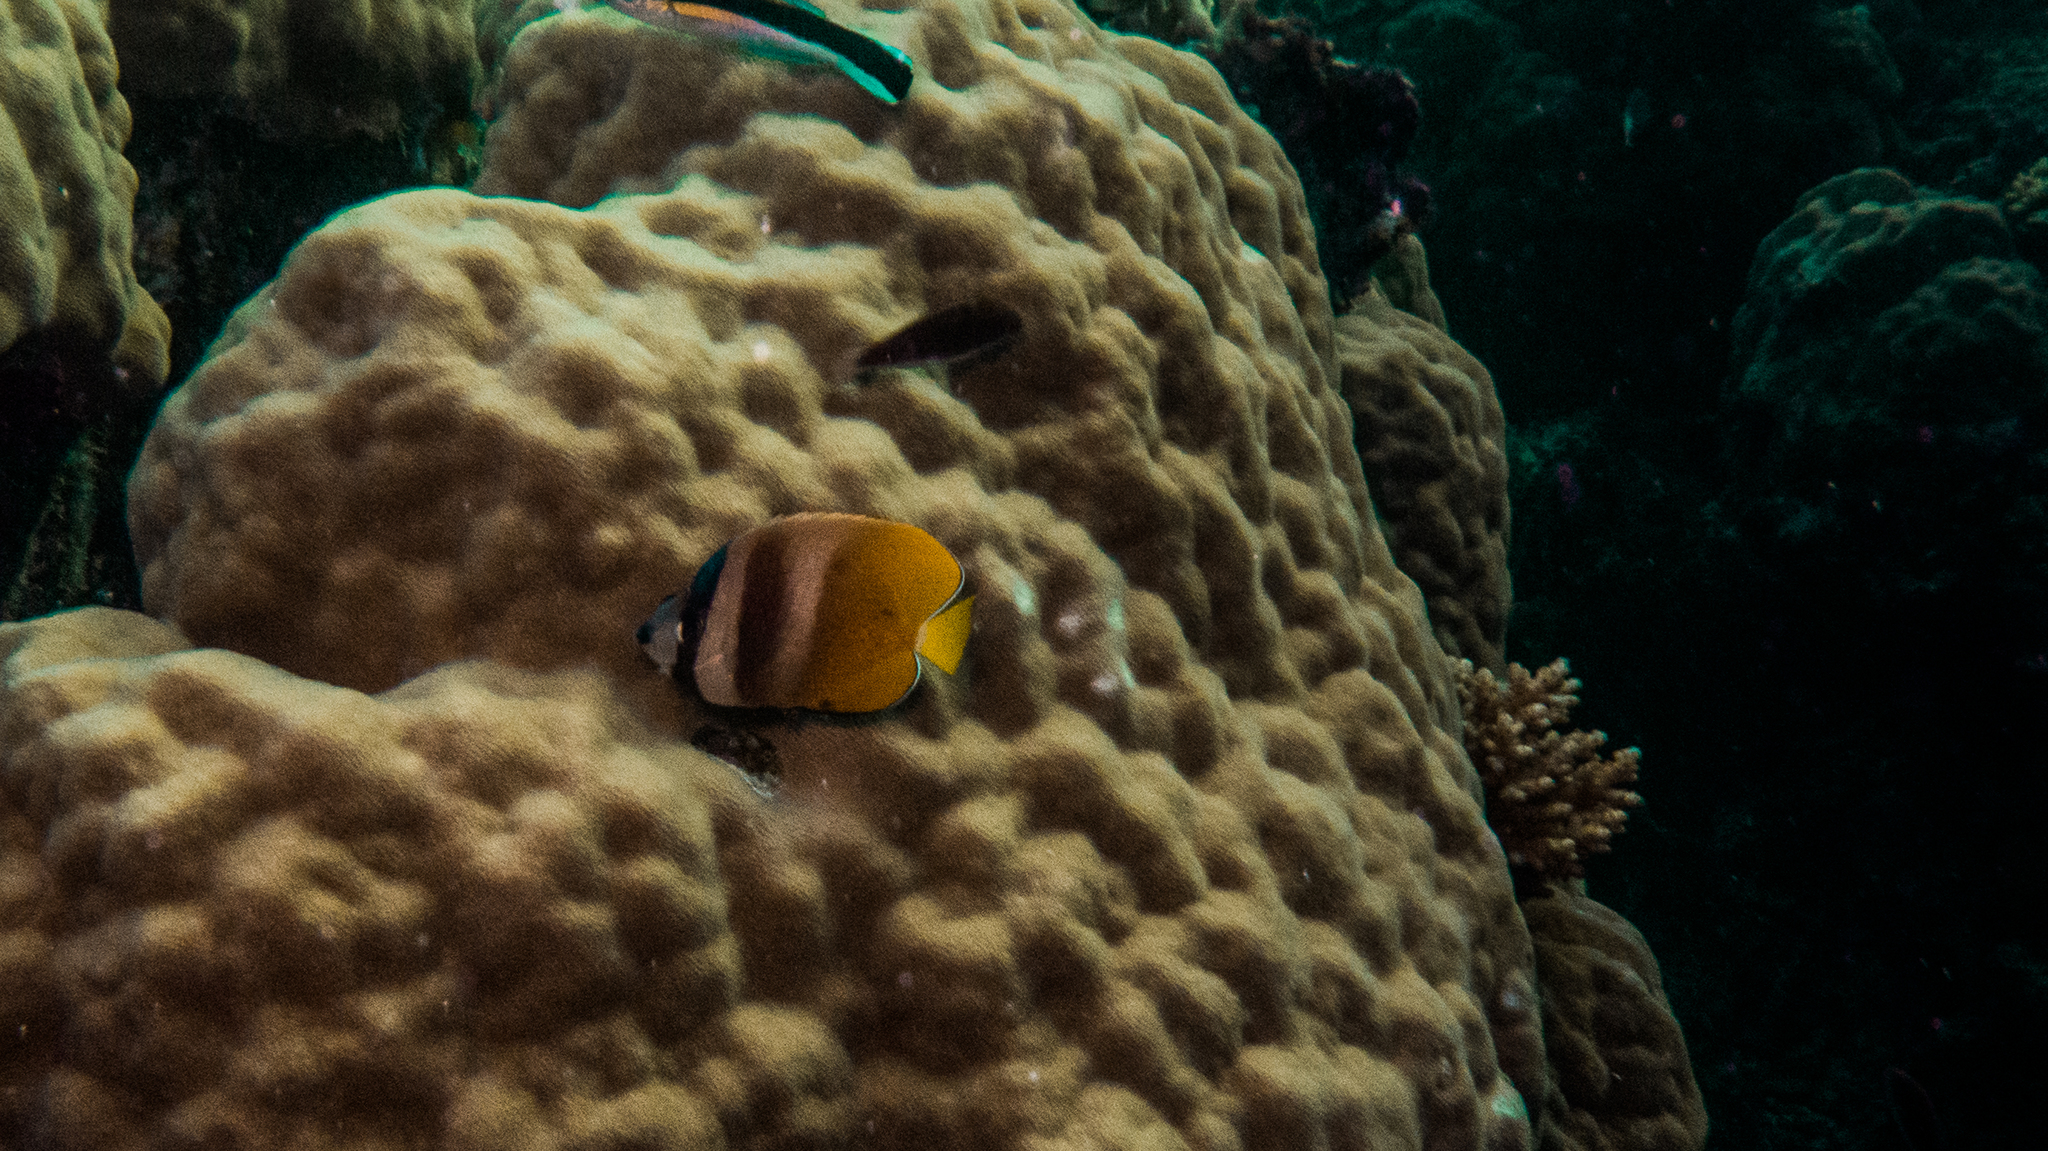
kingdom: Animalia
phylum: Chordata
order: Perciformes
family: Chaetodontidae
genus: Chaetodon
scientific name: Chaetodon kleinii
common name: Klein's butterflyfish
